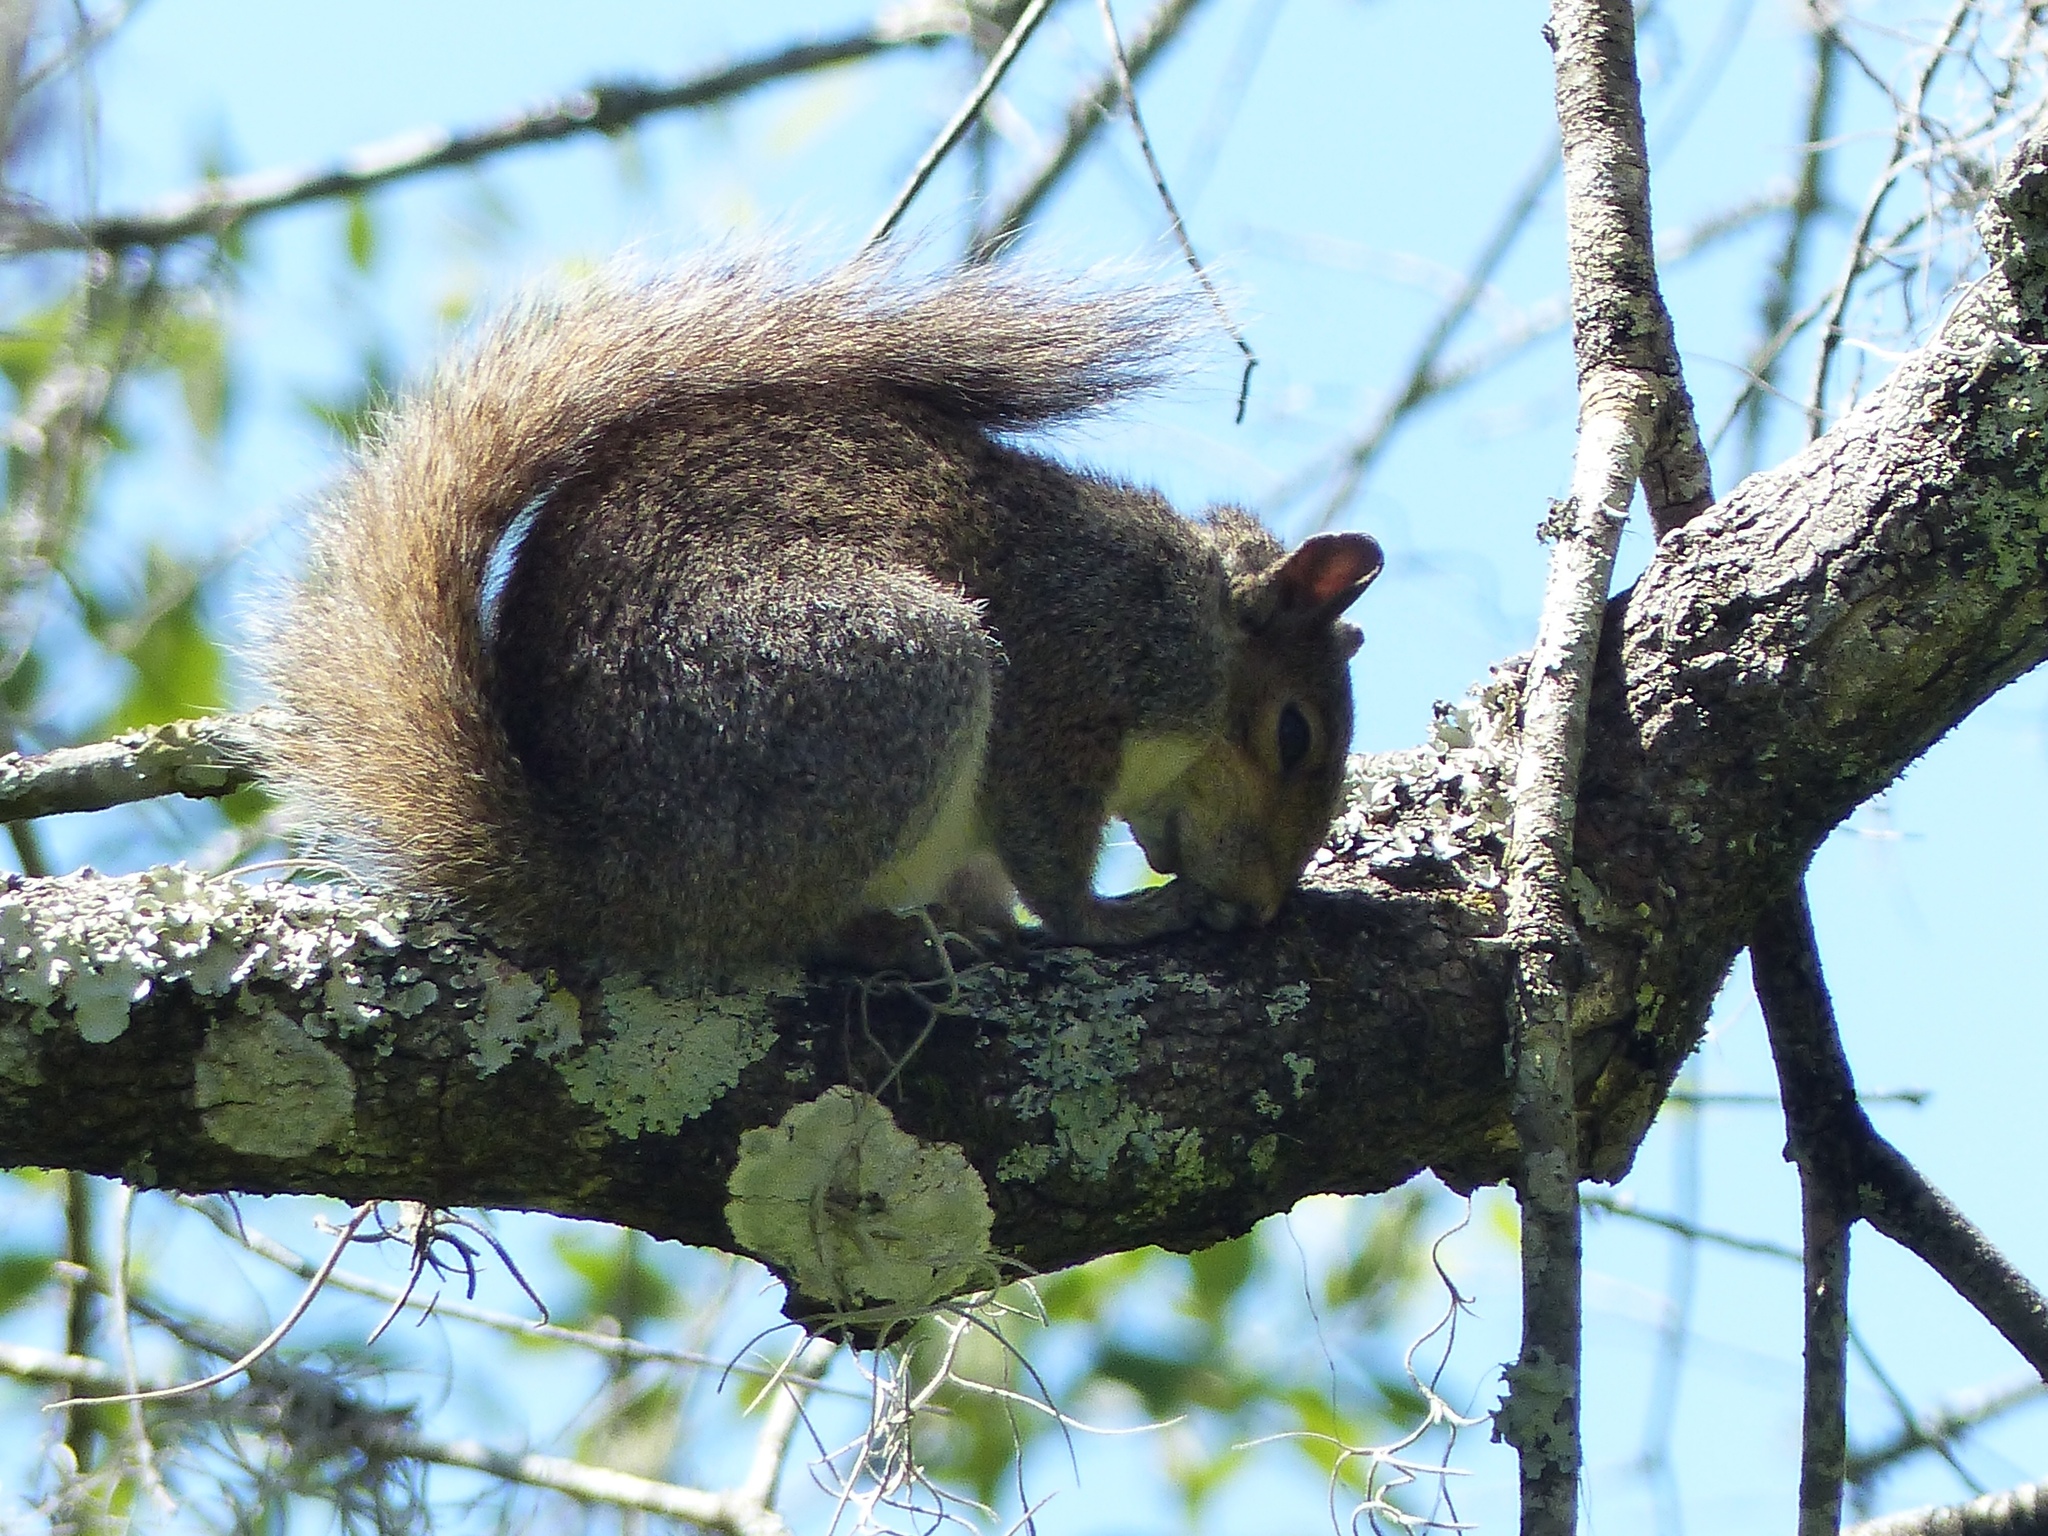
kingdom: Animalia
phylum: Chordata
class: Mammalia
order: Rodentia
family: Sciuridae
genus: Sciurus
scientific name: Sciurus carolinensis
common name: Eastern gray squirrel
